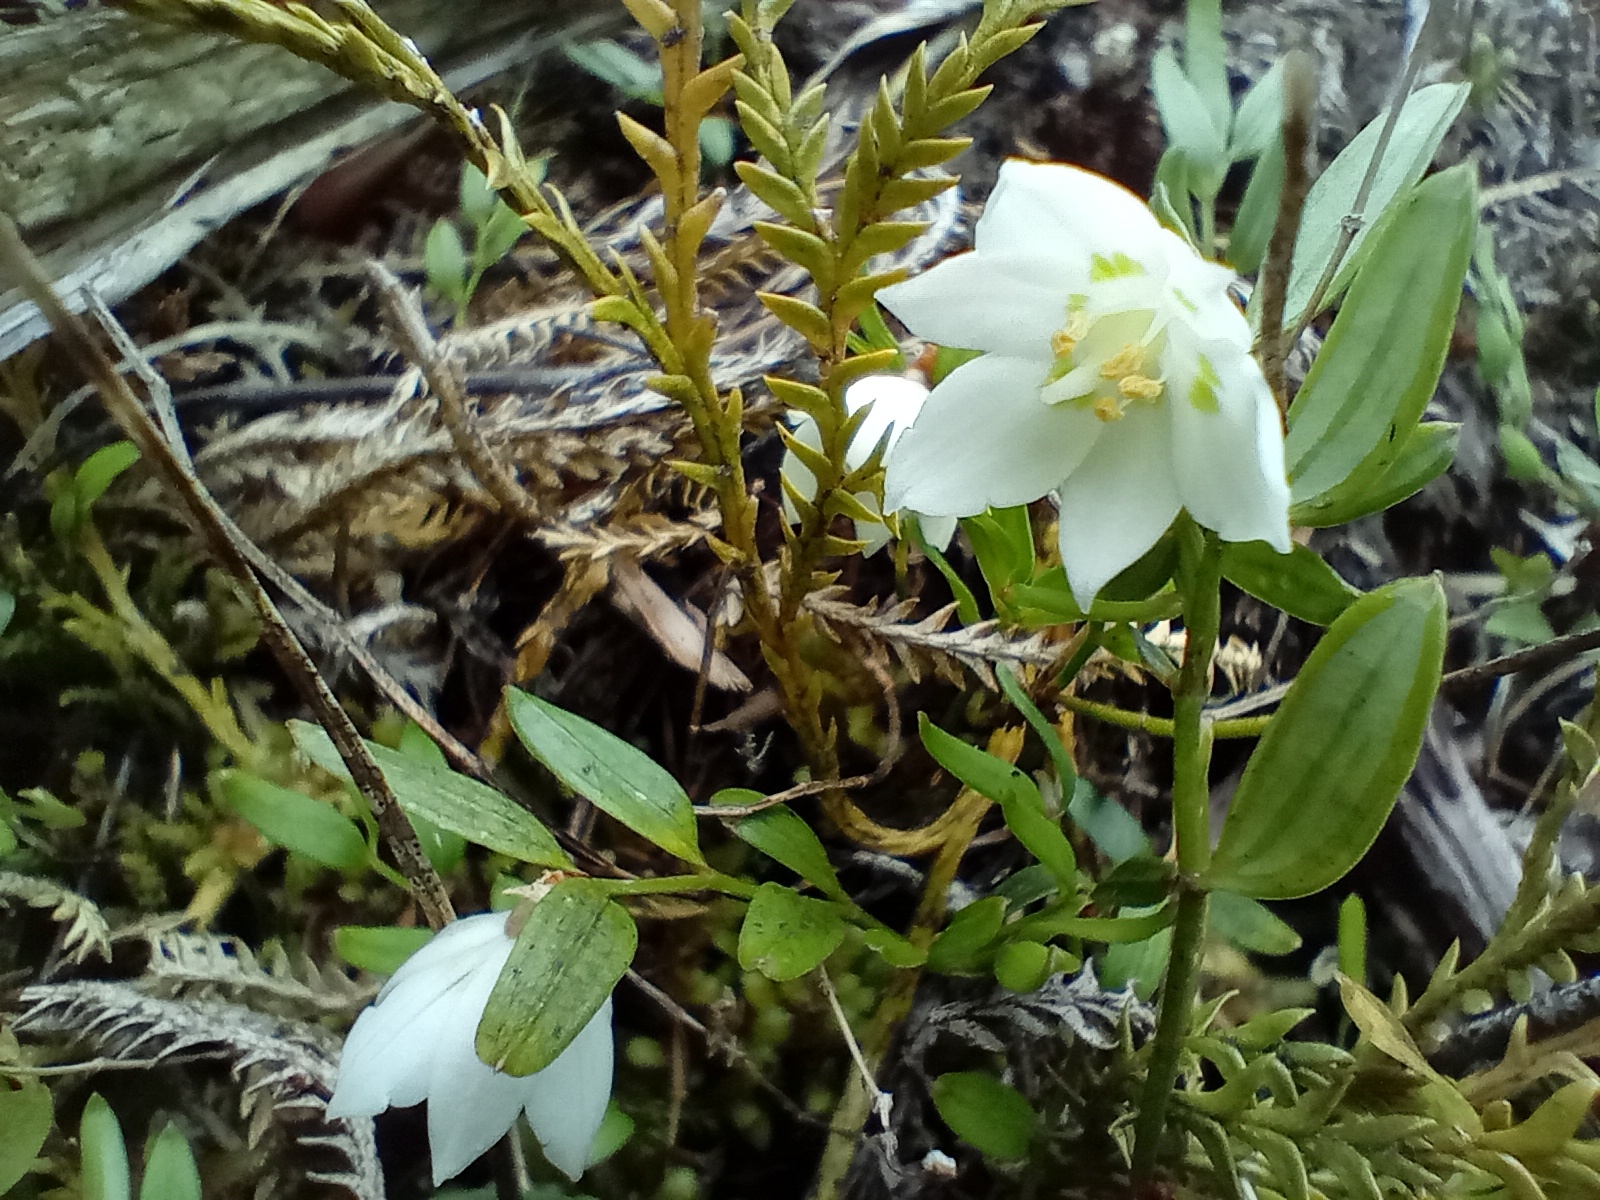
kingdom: Plantae
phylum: Tracheophyta
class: Liliopsida
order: Liliales
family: Alstroemeriaceae
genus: Luzuriaga
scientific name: Luzuriaga parviflora
